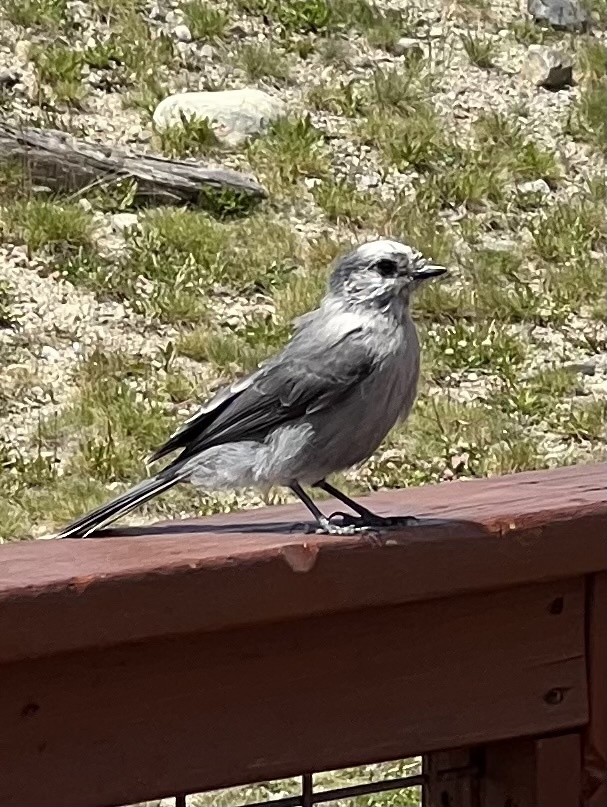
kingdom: Animalia
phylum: Chordata
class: Aves
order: Passeriformes
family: Corvidae
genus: Perisoreus
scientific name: Perisoreus canadensis
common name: Gray jay
